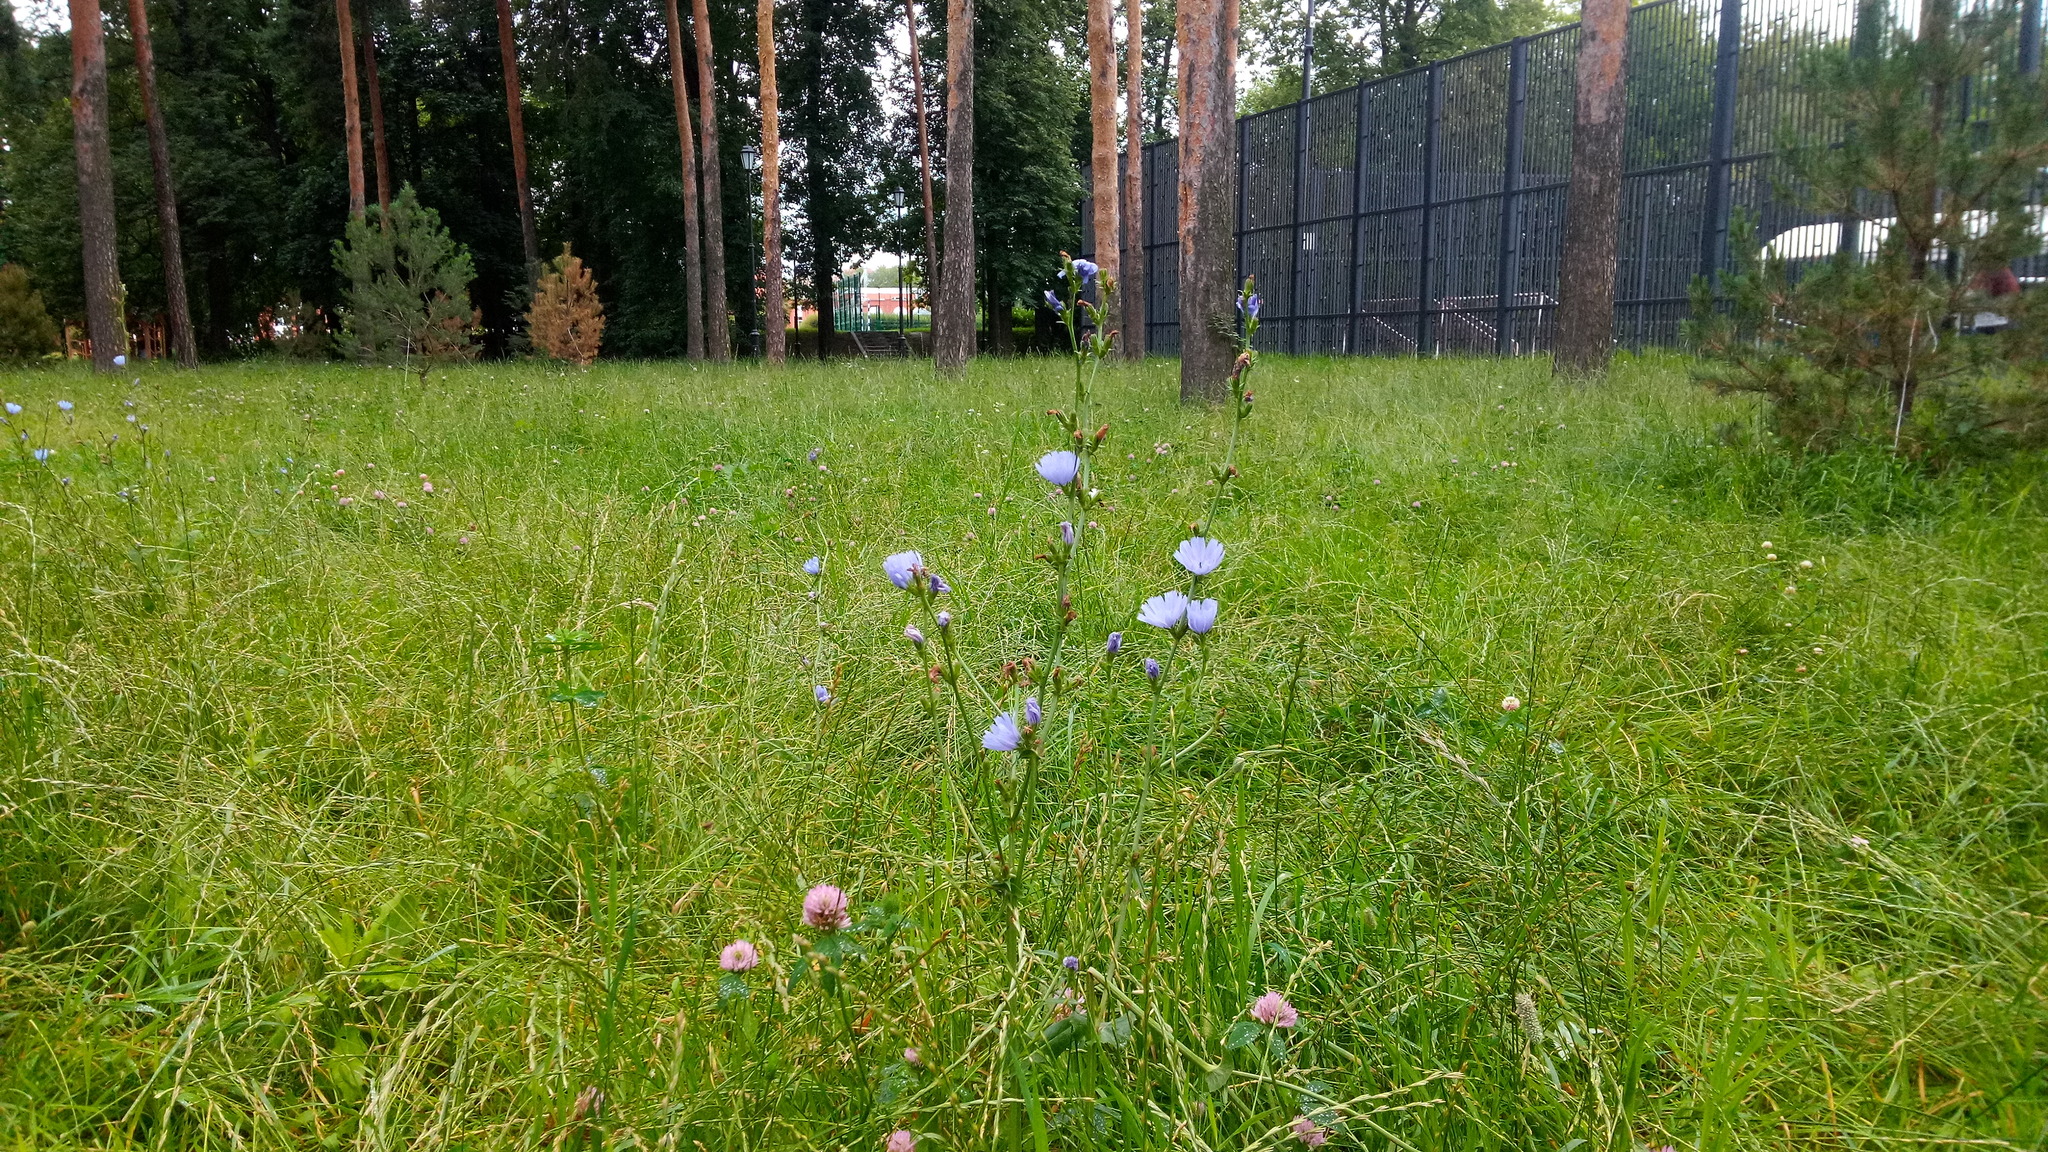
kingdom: Plantae
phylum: Tracheophyta
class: Magnoliopsida
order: Asterales
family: Asteraceae
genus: Cichorium
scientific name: Cichorium intybus
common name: Chicory
